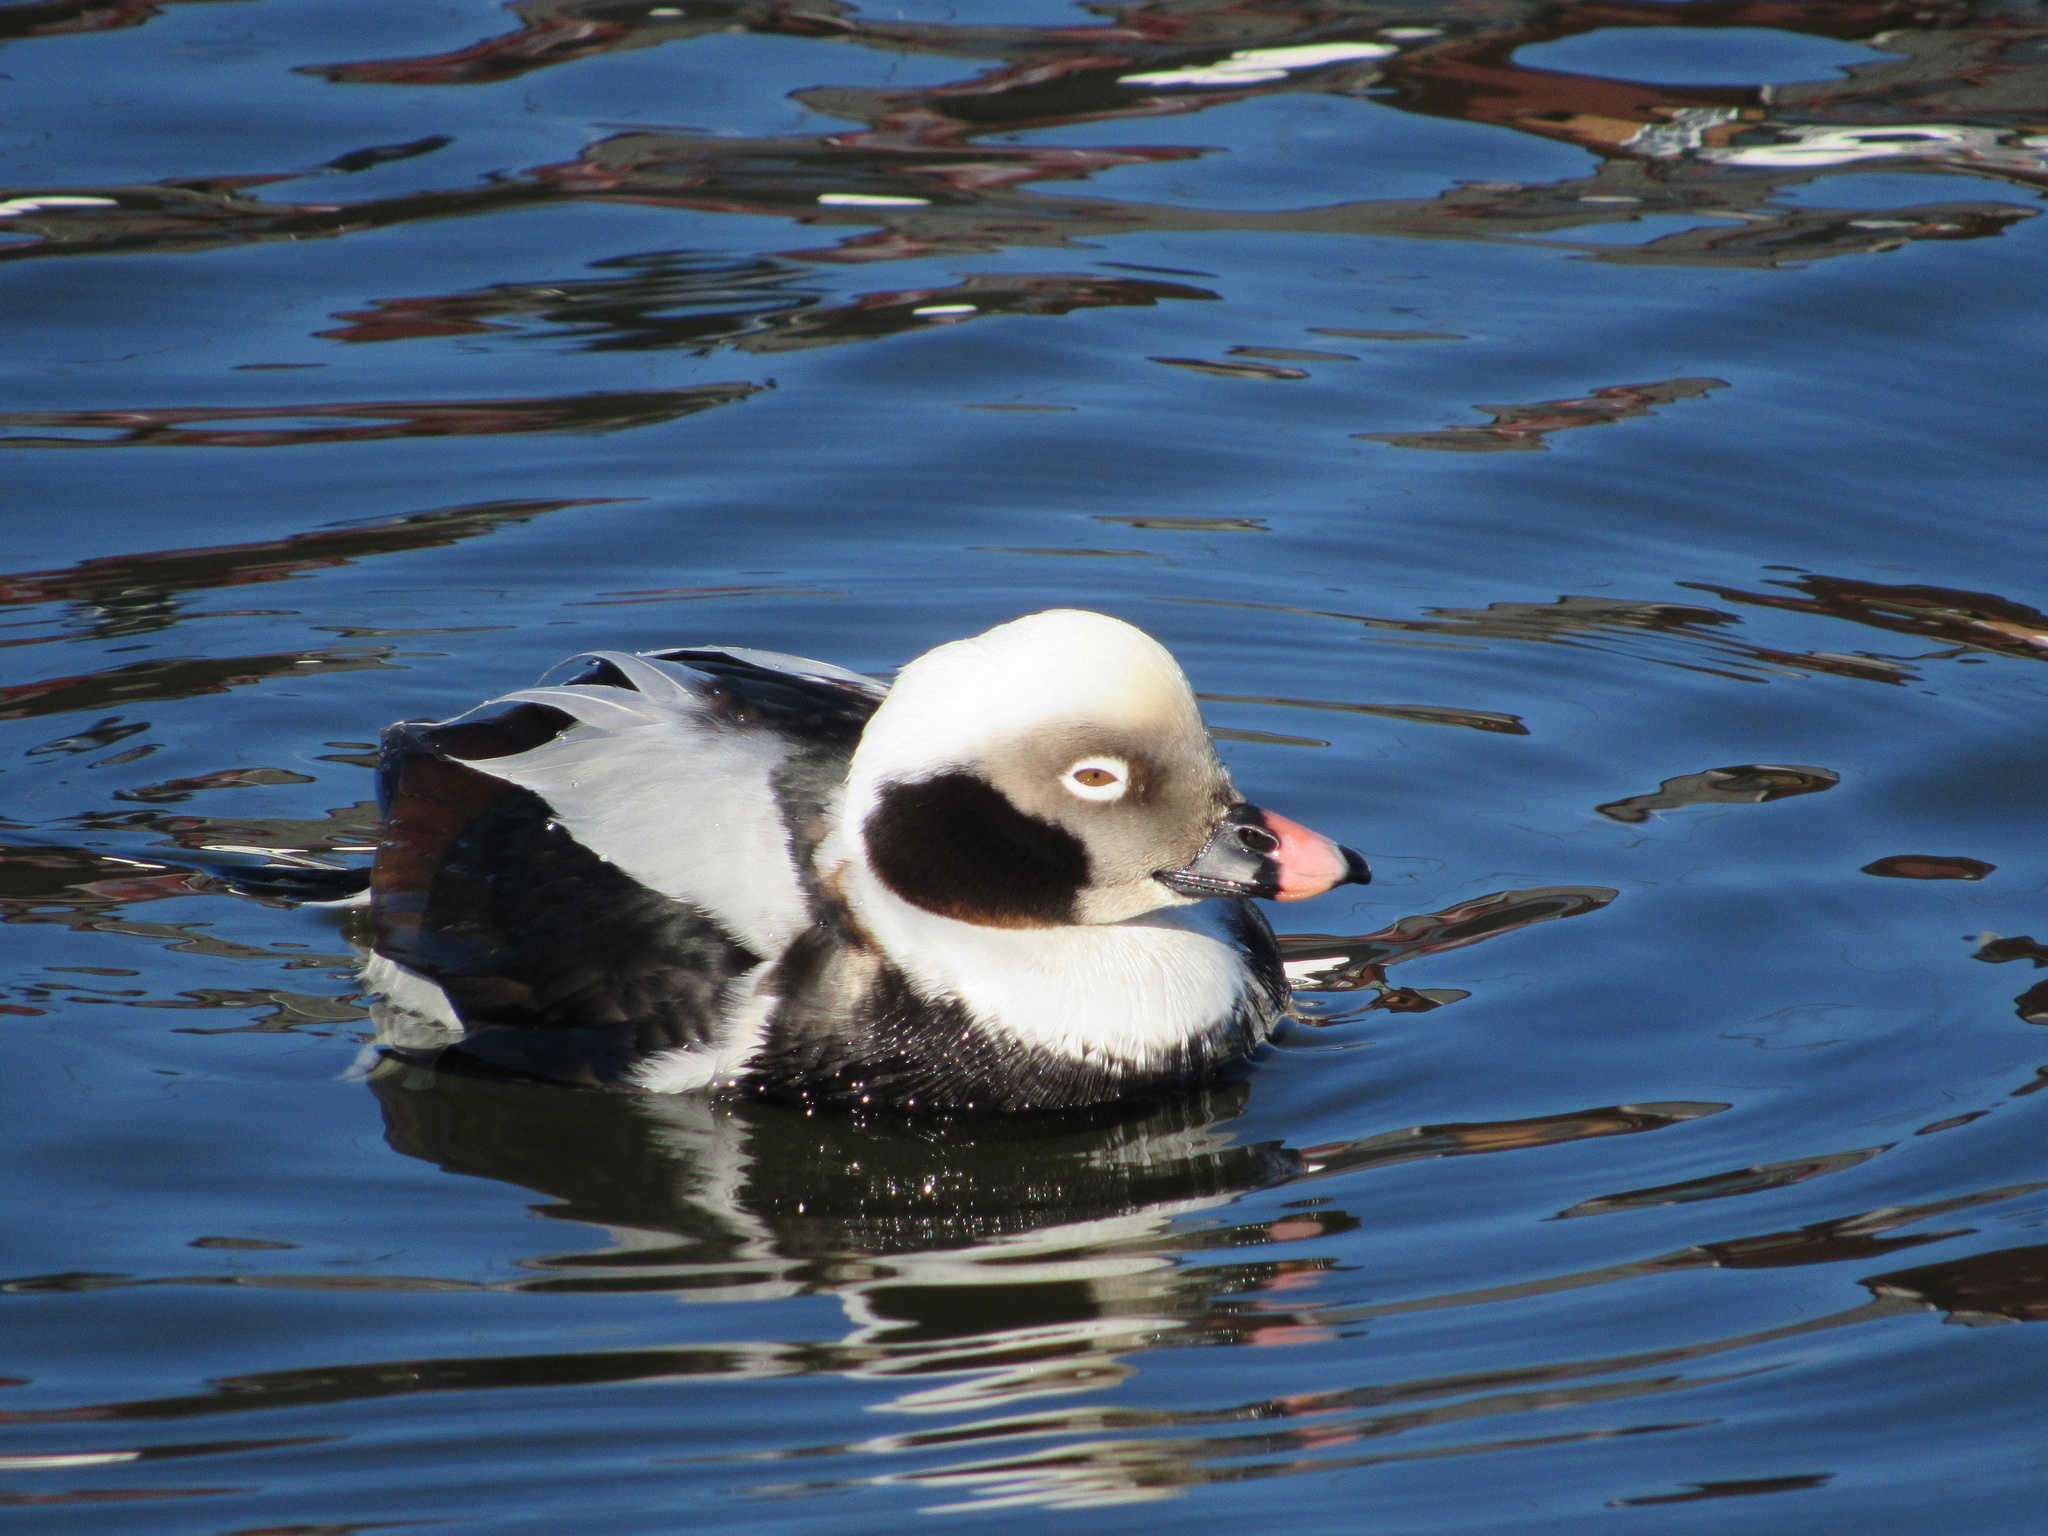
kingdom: Animalia
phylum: Chordata
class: Aves
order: Anseriformes
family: Anatidae
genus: Clangula
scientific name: Clangula hyemalis
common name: Long-tailed duck
